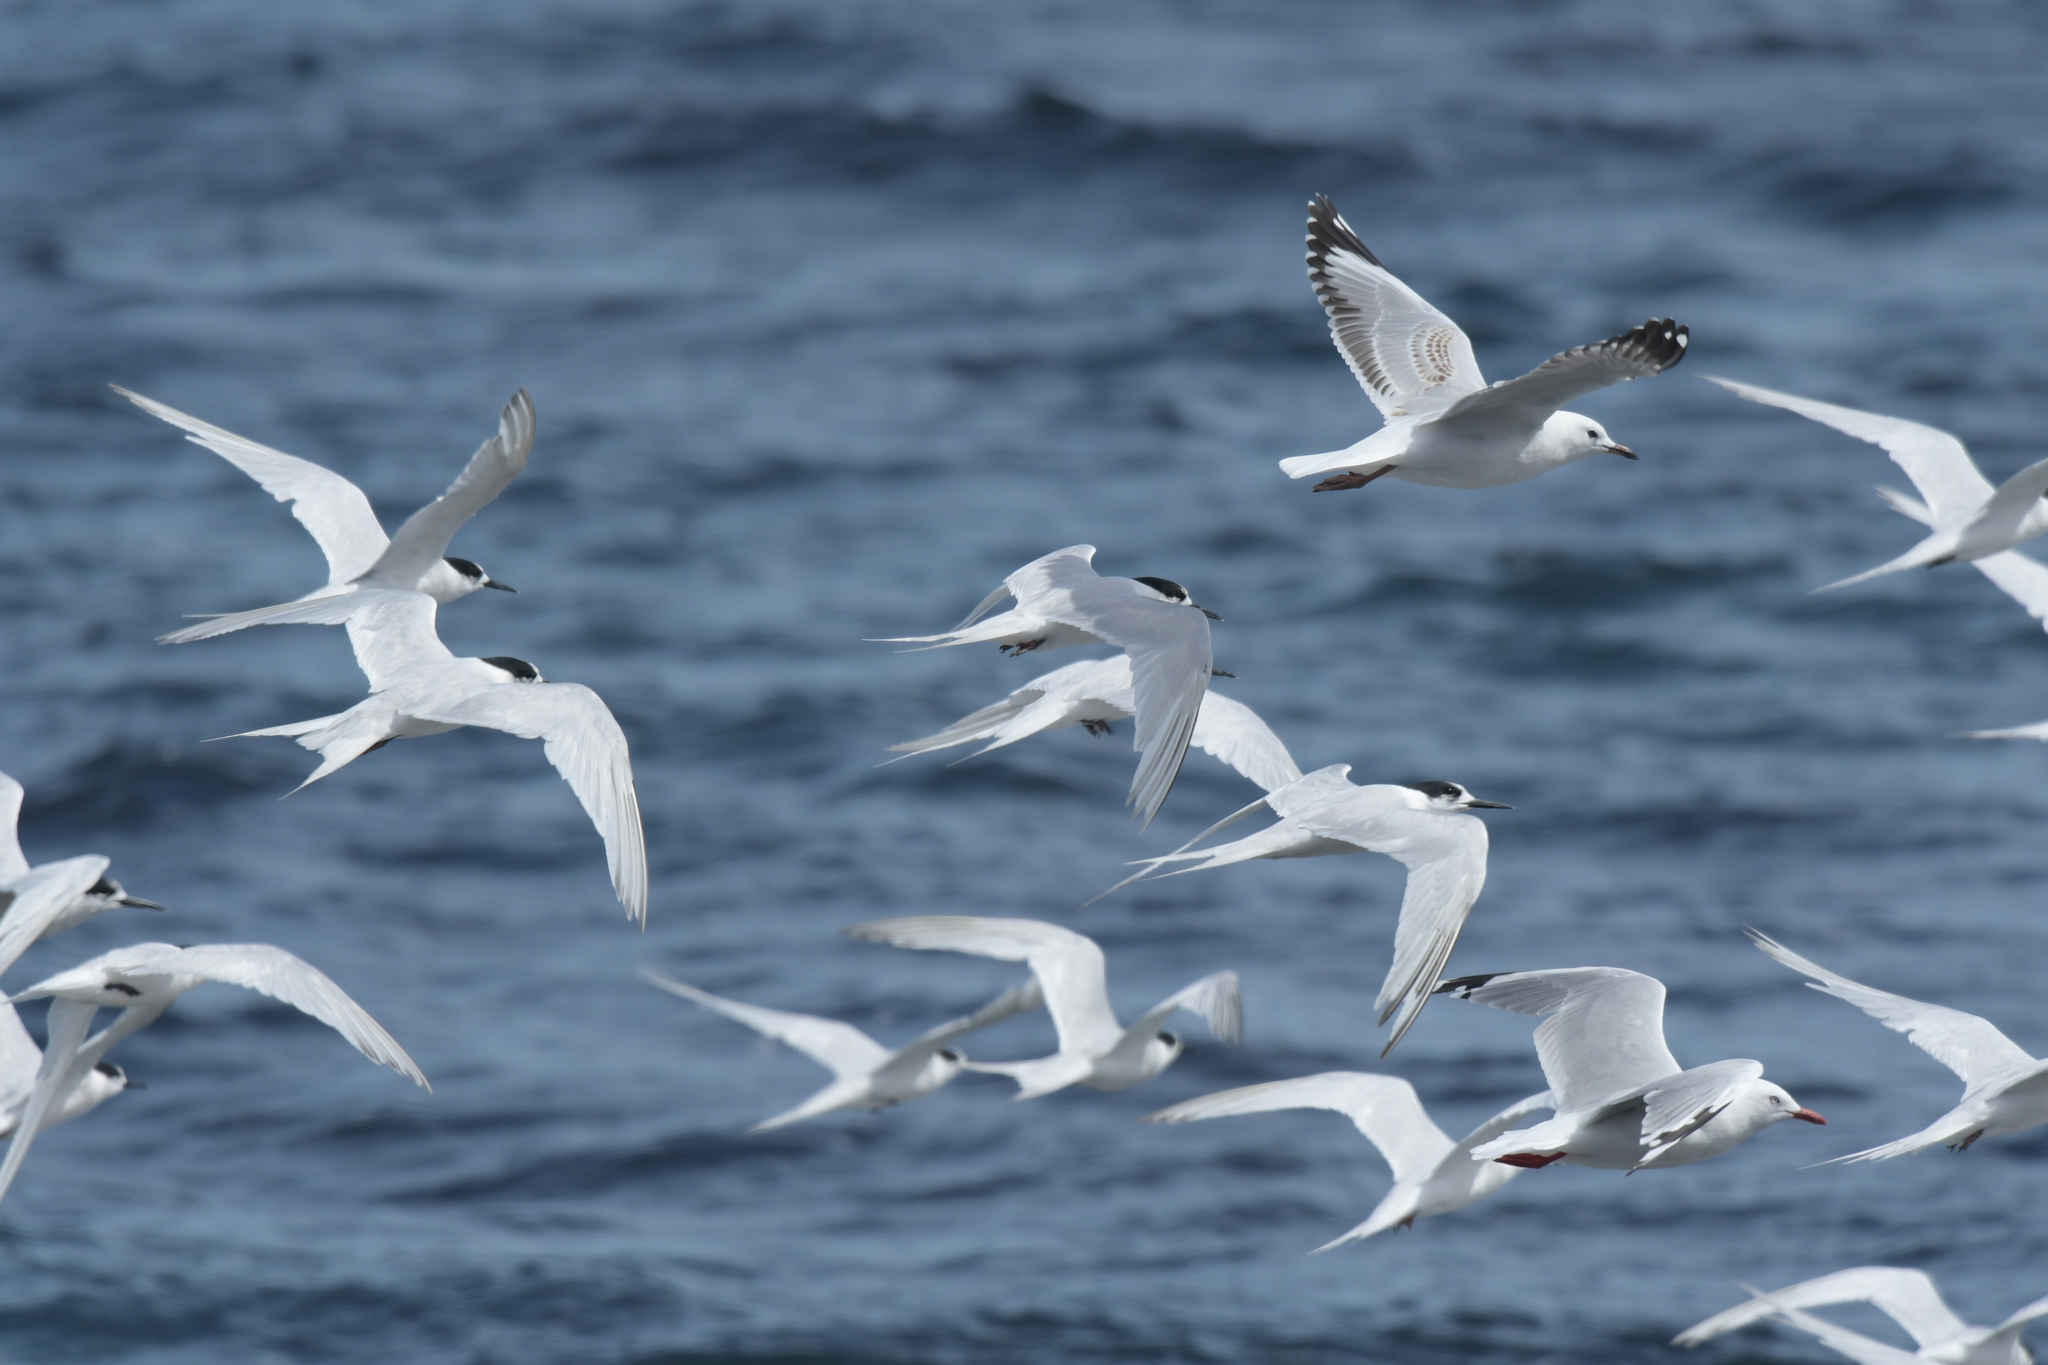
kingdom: Animalia
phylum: Chordata
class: Aves
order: Charadriiformes
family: Laridae
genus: Sterna
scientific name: Sterna striata
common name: White-fronted tern
